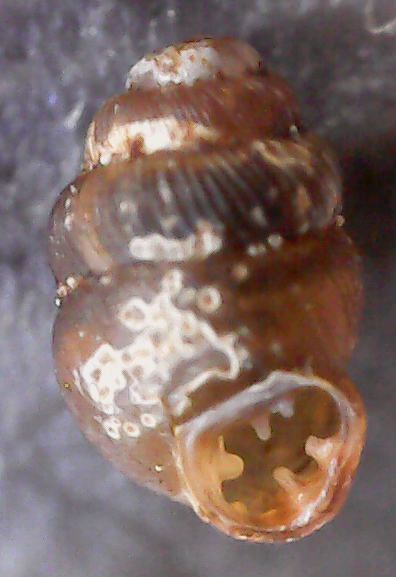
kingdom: Animalia
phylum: Mollusca
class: Gastropoda
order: Stylommatophora
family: Vertiginidae
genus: Vertigo
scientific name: Vertigo substriata
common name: Striated whorl snail
